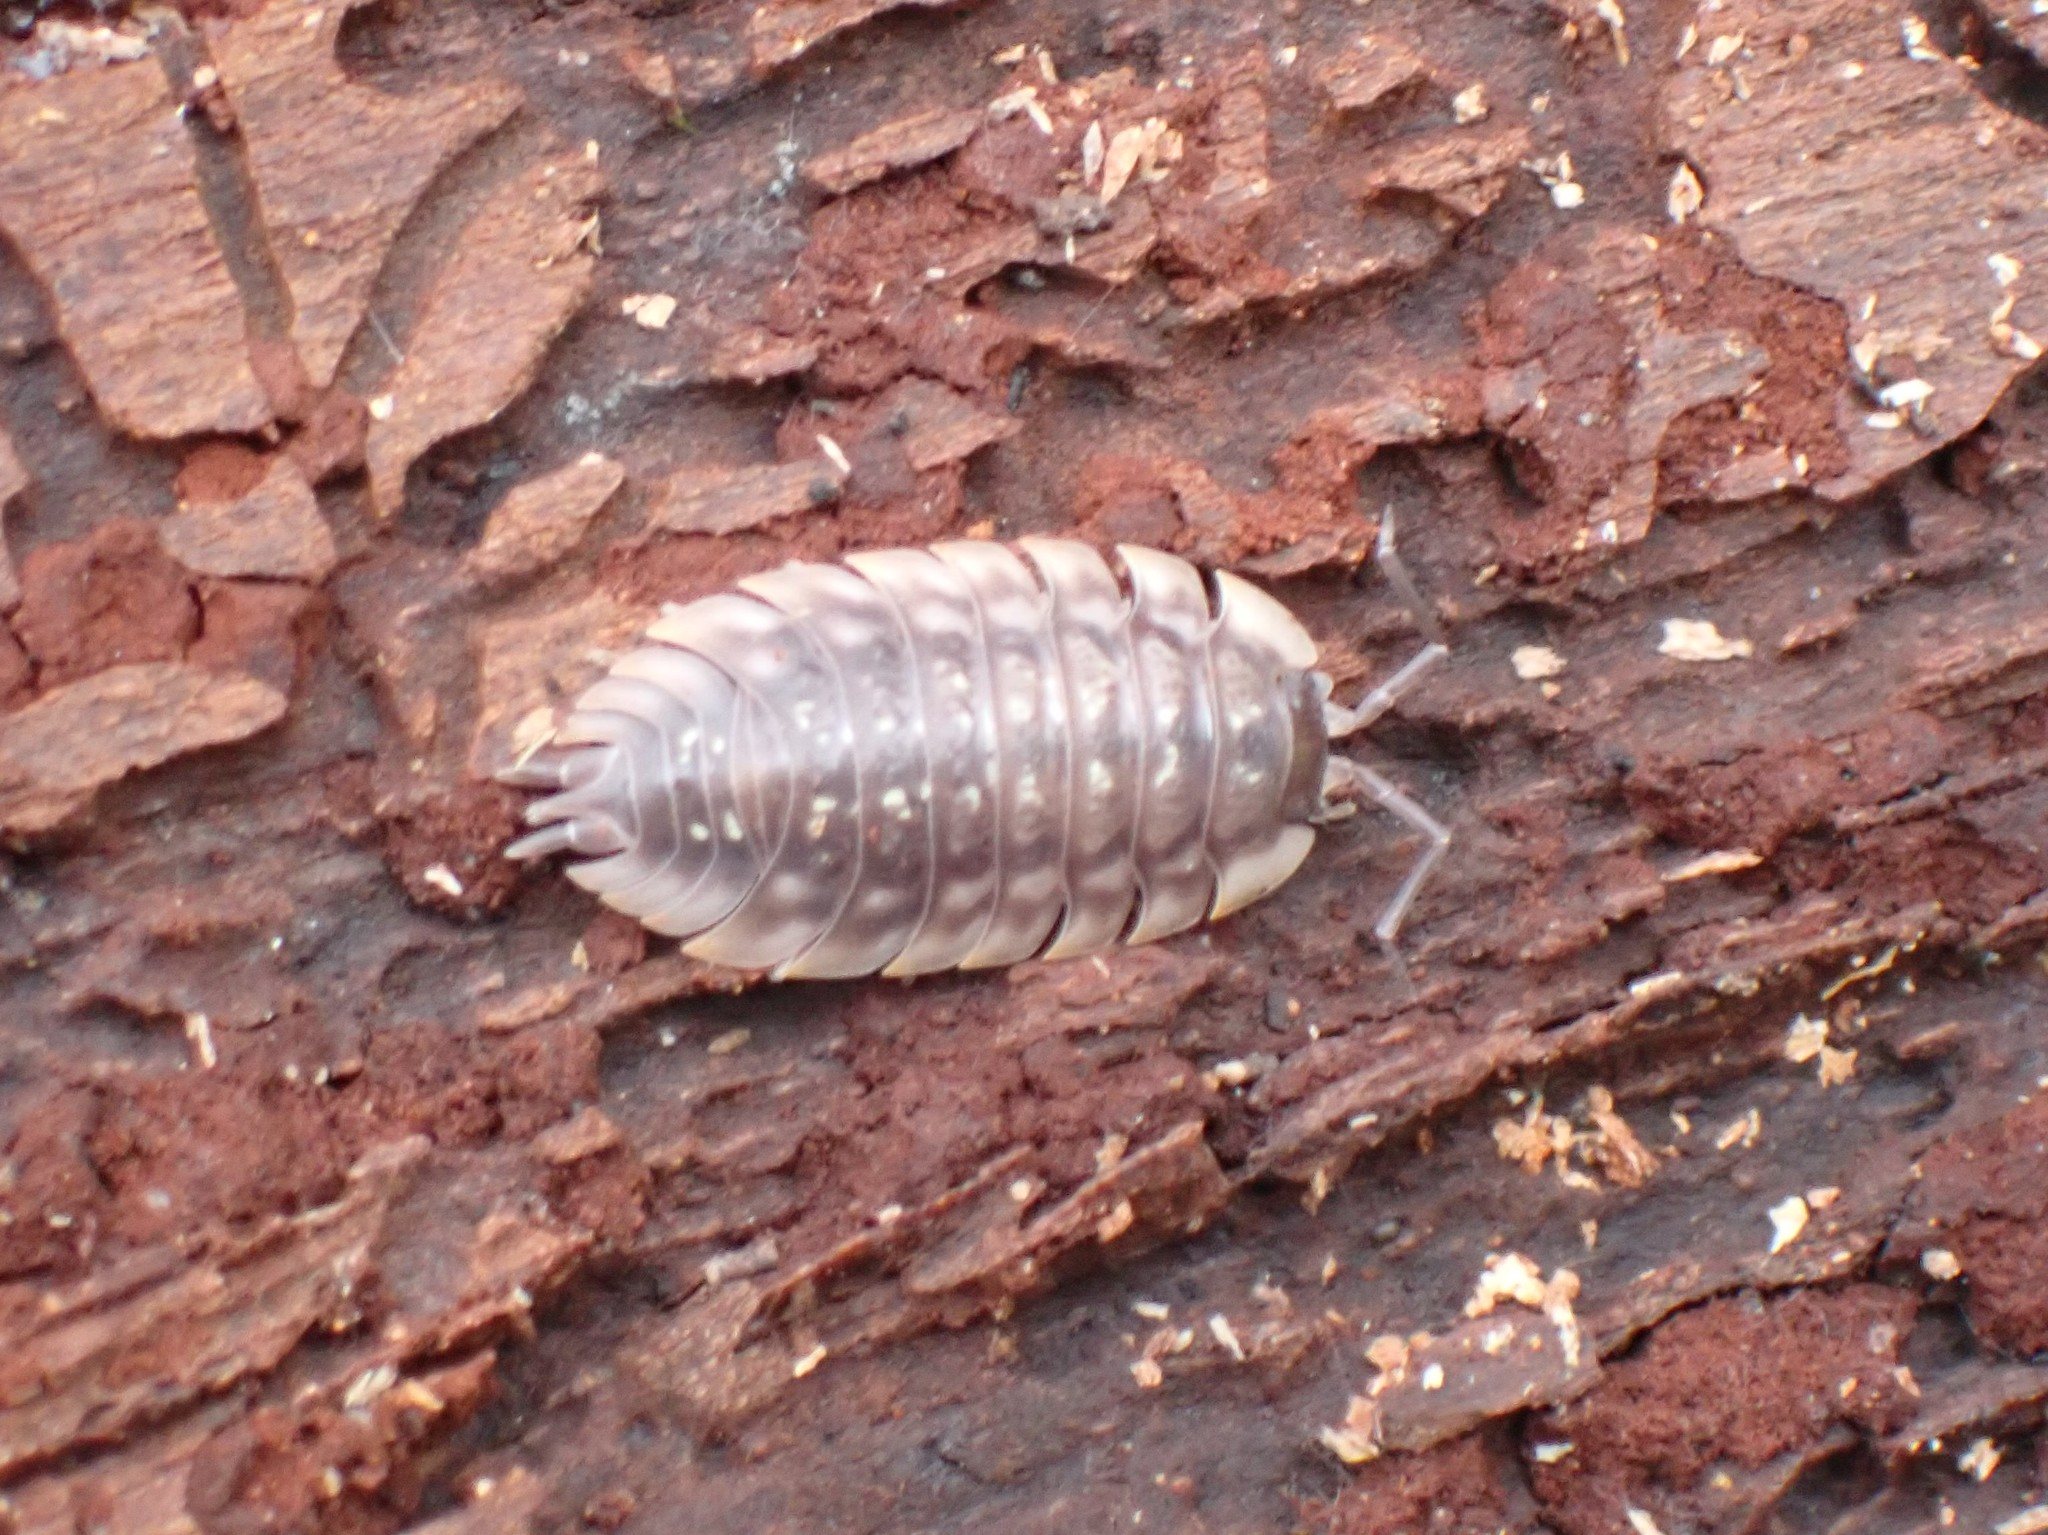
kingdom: Animalia
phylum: Arthropoda
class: Malacostraca
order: Isopoda
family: Oniscidae
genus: Oniscus
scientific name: Oniscus asellus
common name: Common shiny woodlouse
